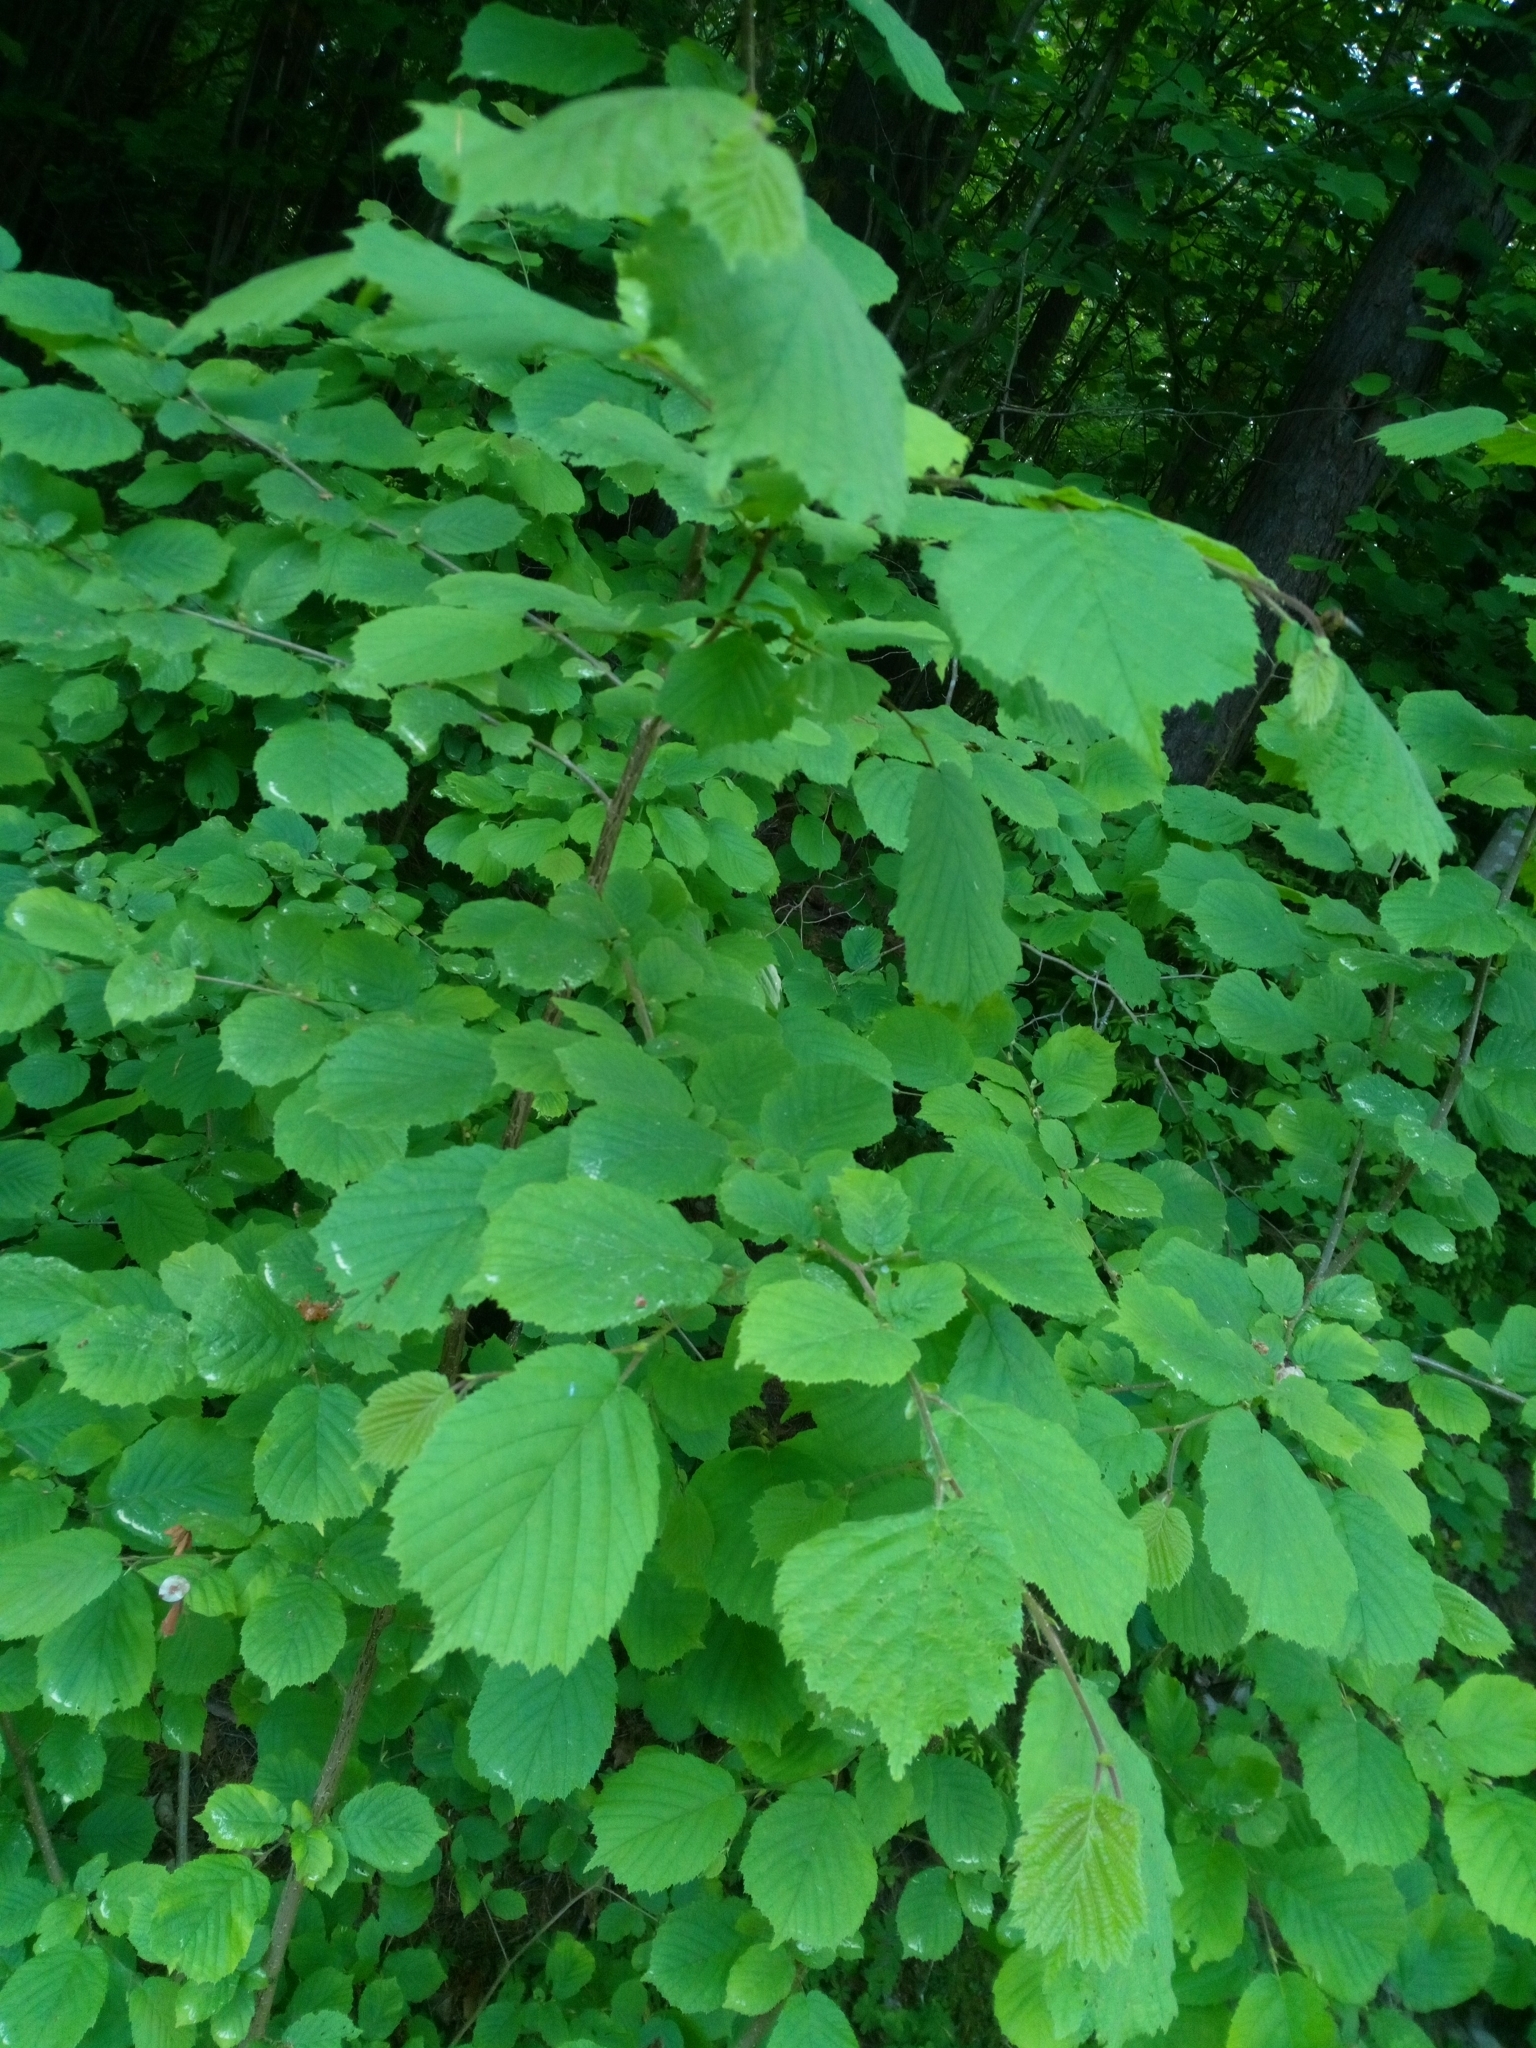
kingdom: Plantae
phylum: Tracheophyta
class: Magnoliopsida
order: Fagales
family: Betulaceae
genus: Corylus
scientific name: Corylus avellana
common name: European hazel
